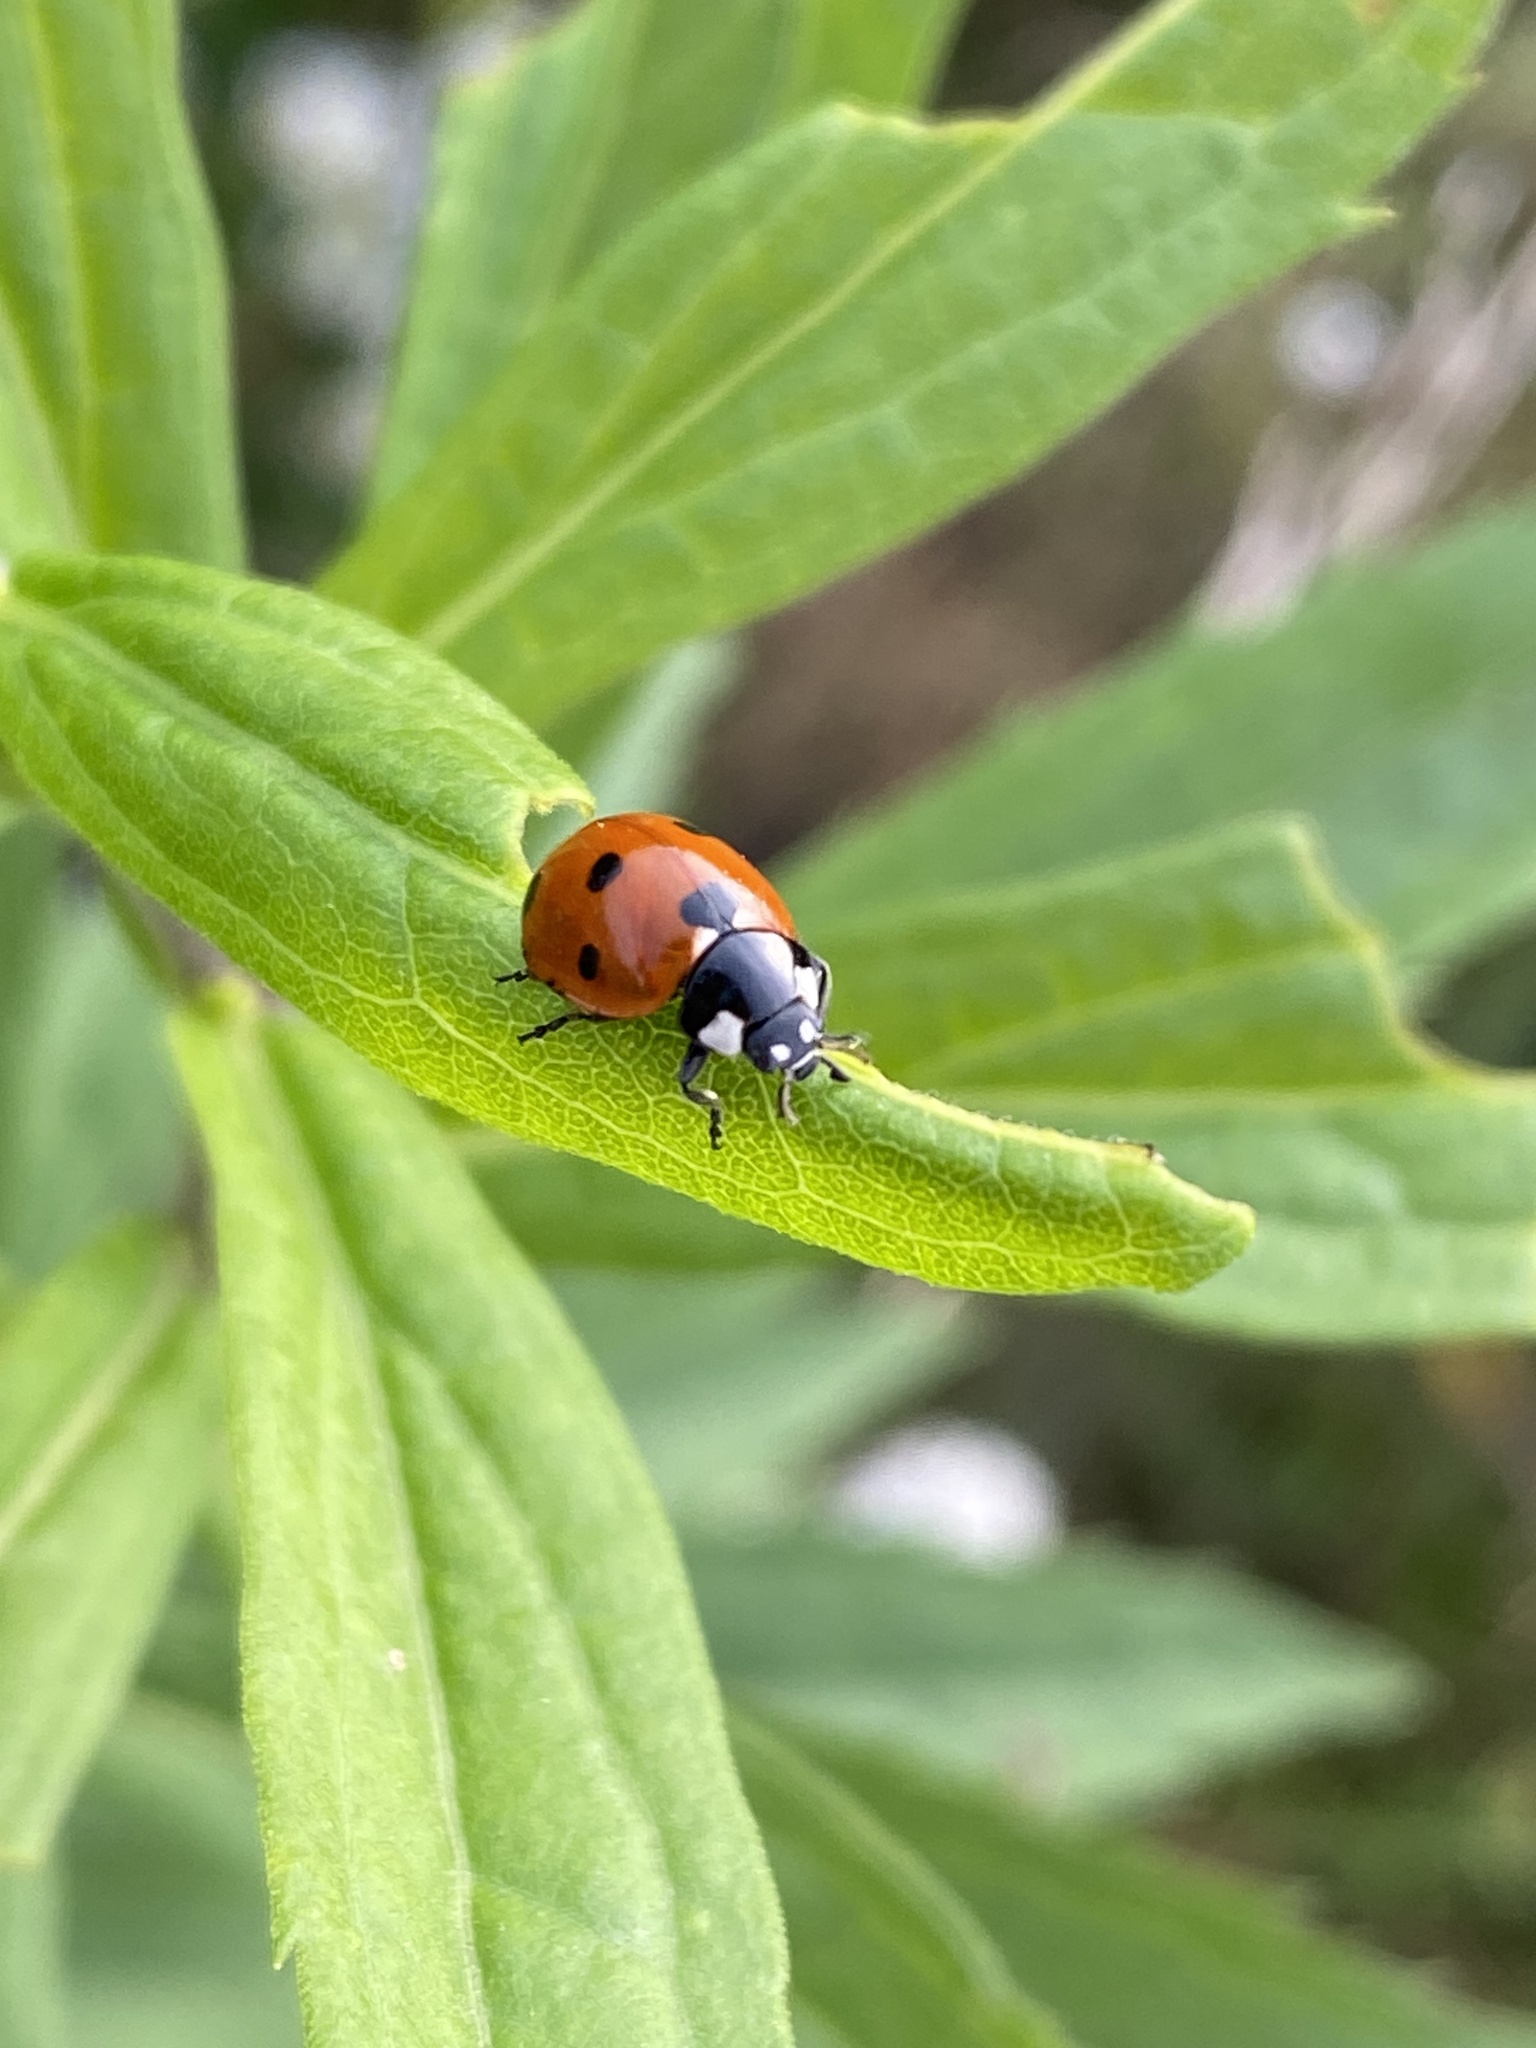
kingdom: Animalia
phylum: Arthropoda
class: Insecta
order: Coleoptera
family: Coccinellidae
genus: Coccinella
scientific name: Coccinella septempunctata
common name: Sevenspotted lady beetle
